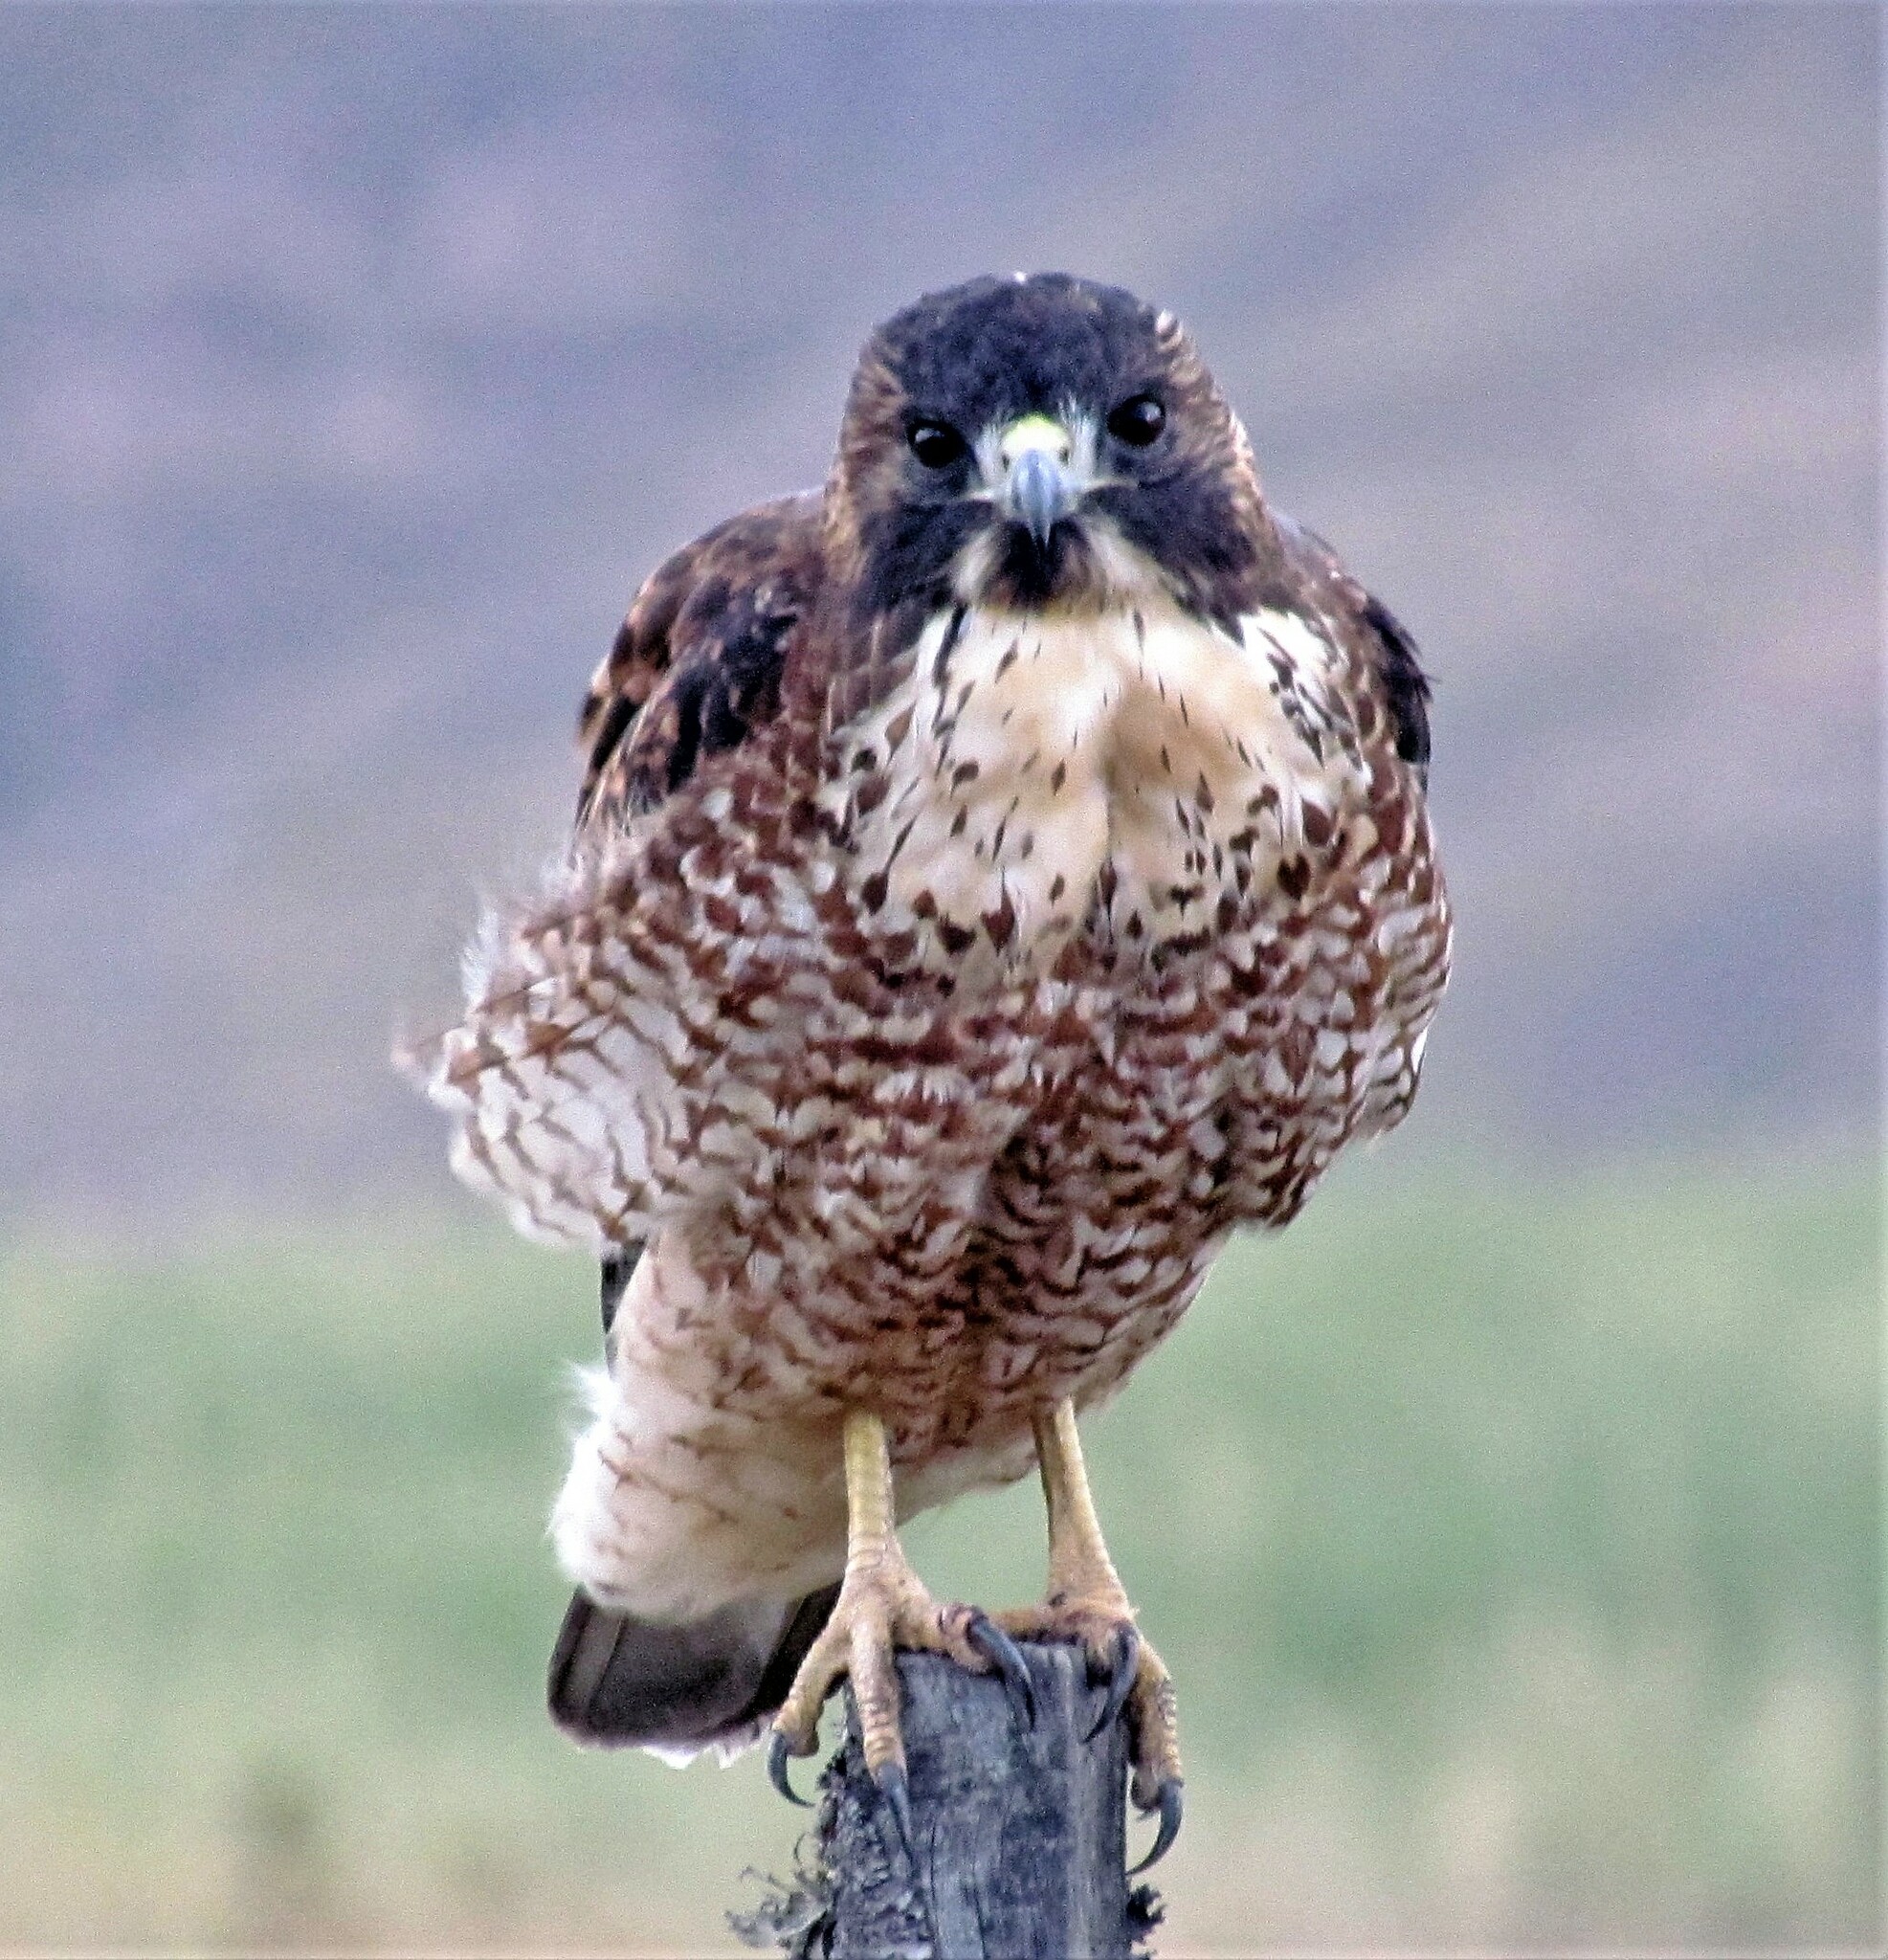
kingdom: Animalia
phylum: Chordata
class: Aves
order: Accipitriformes
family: Accipitridae
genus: Buteo
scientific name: Buteo polyosoma
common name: Variable hawk
